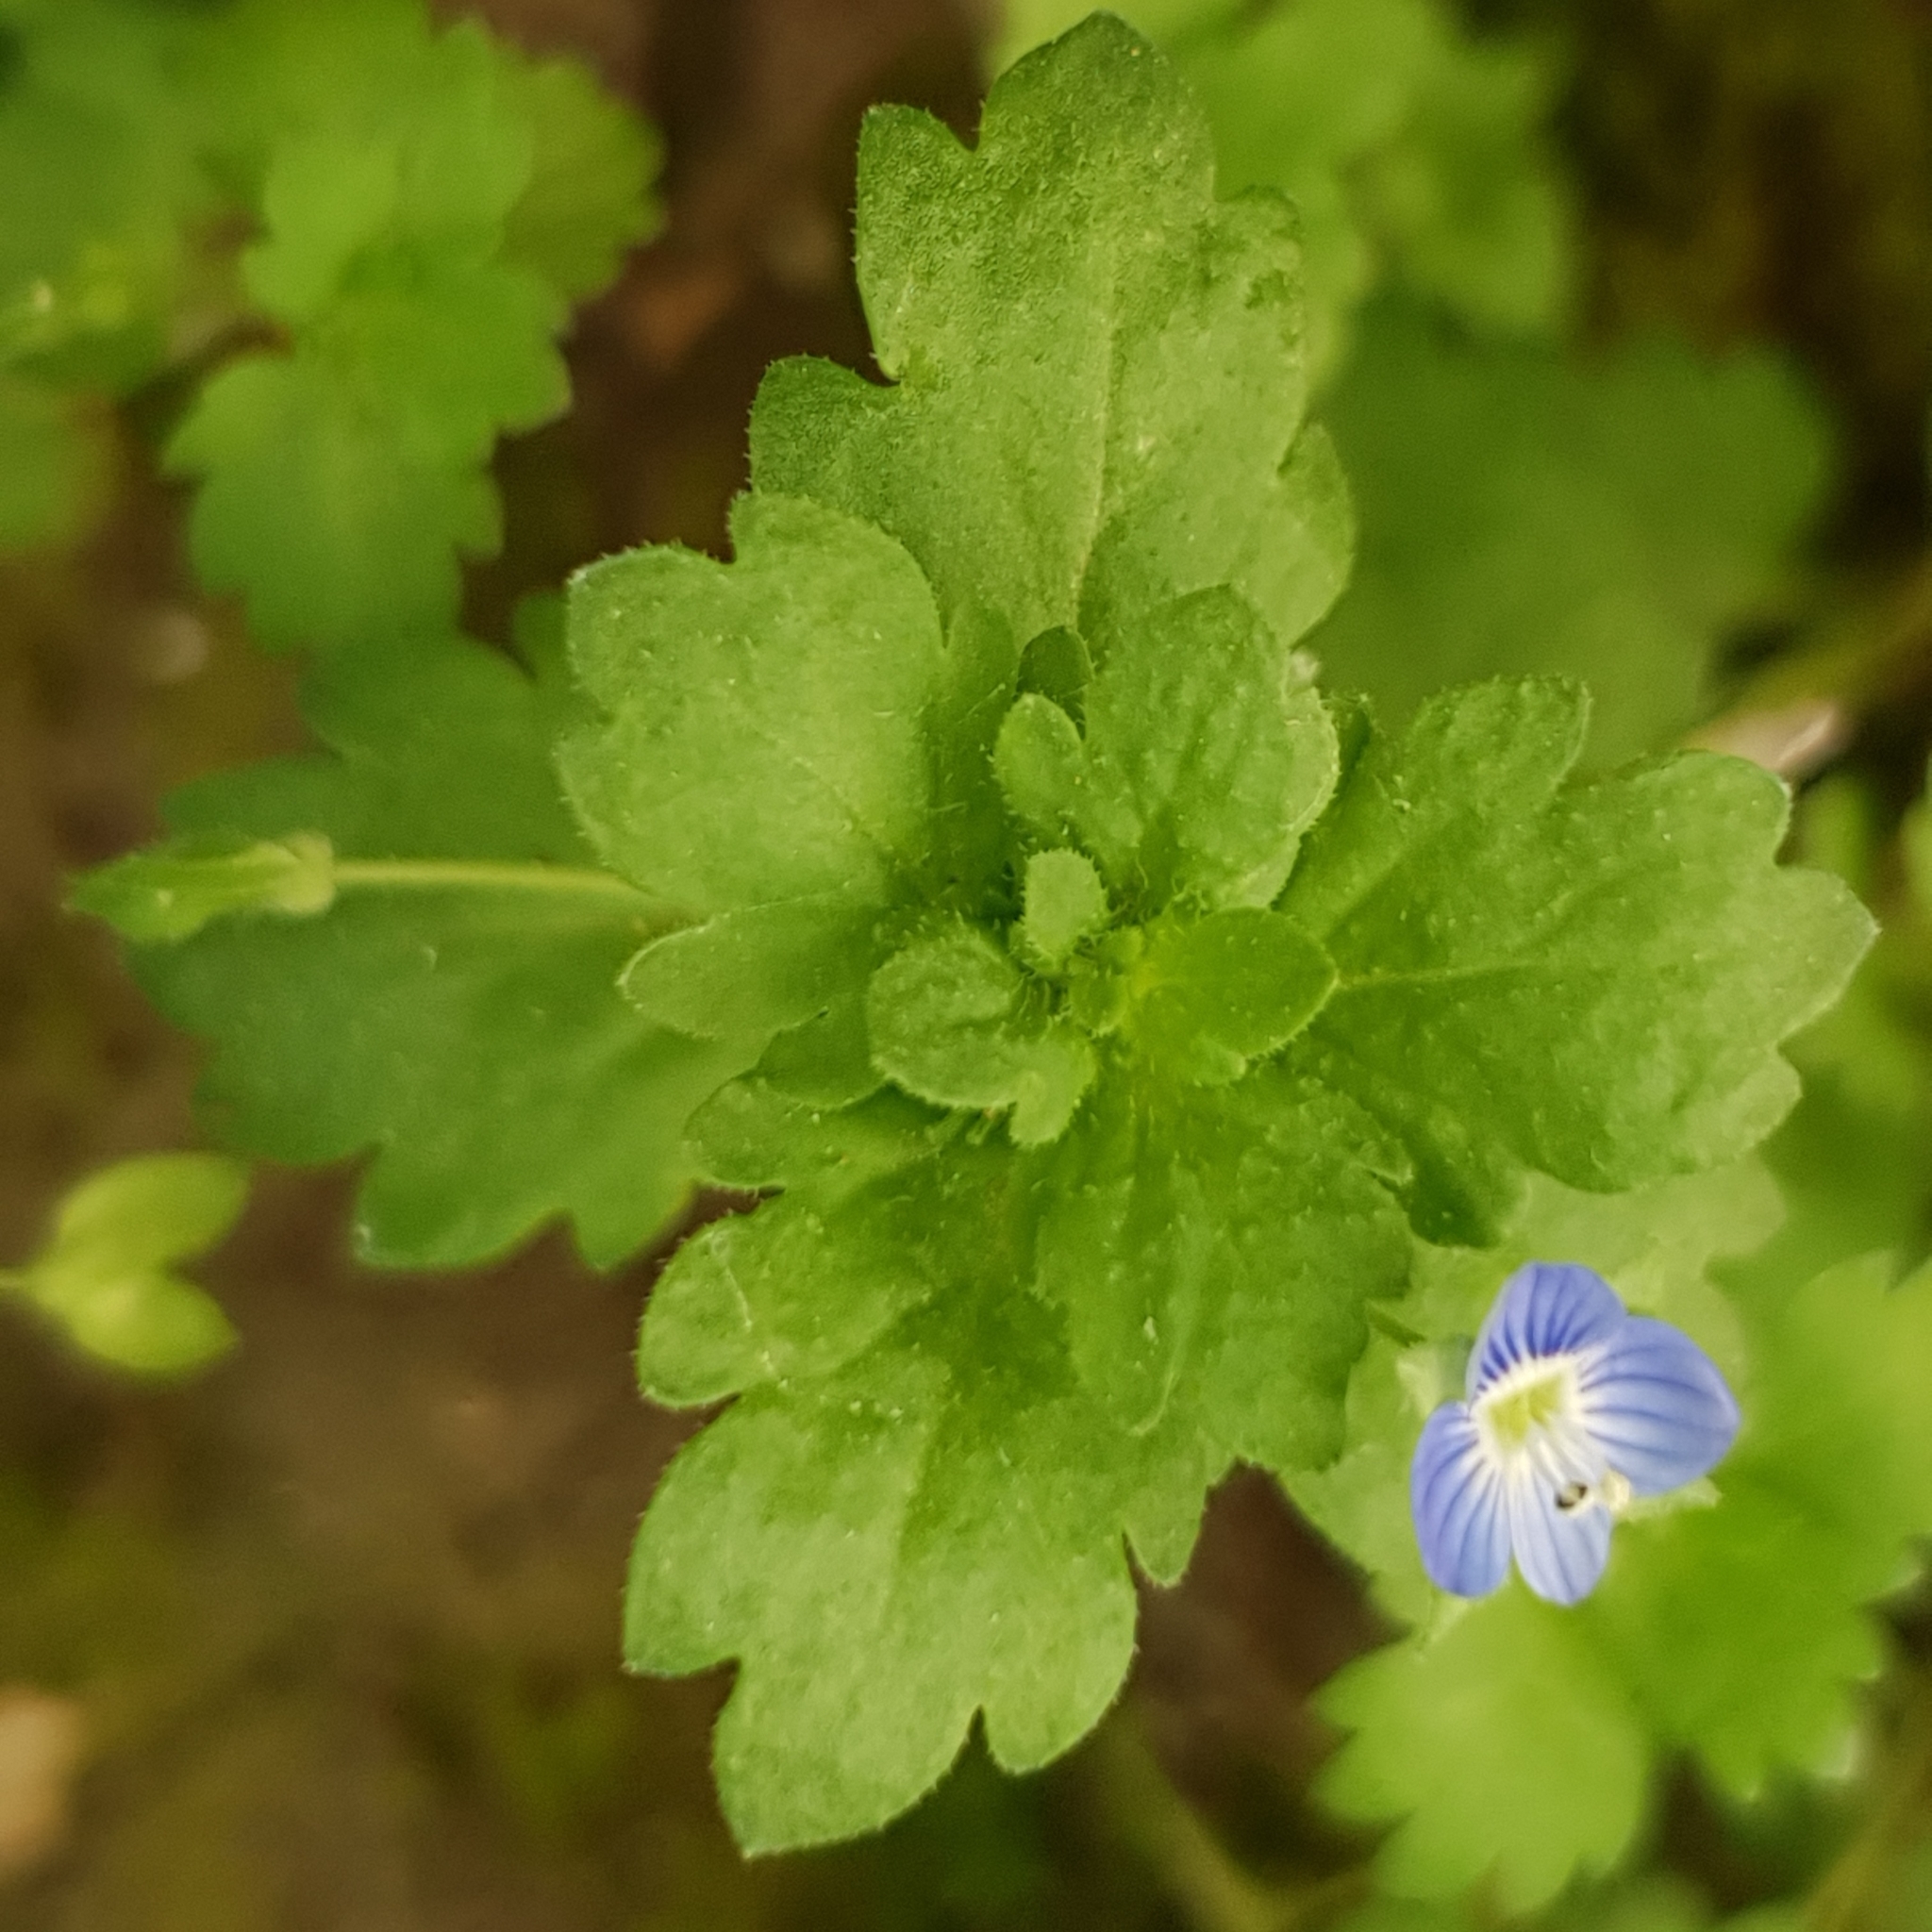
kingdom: Plantae
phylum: Tracheophyta
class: Magnoliopsida
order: Lamiales
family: Plantaginaceae
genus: Veronica
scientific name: Veronica polita
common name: Grey field-speedwell
